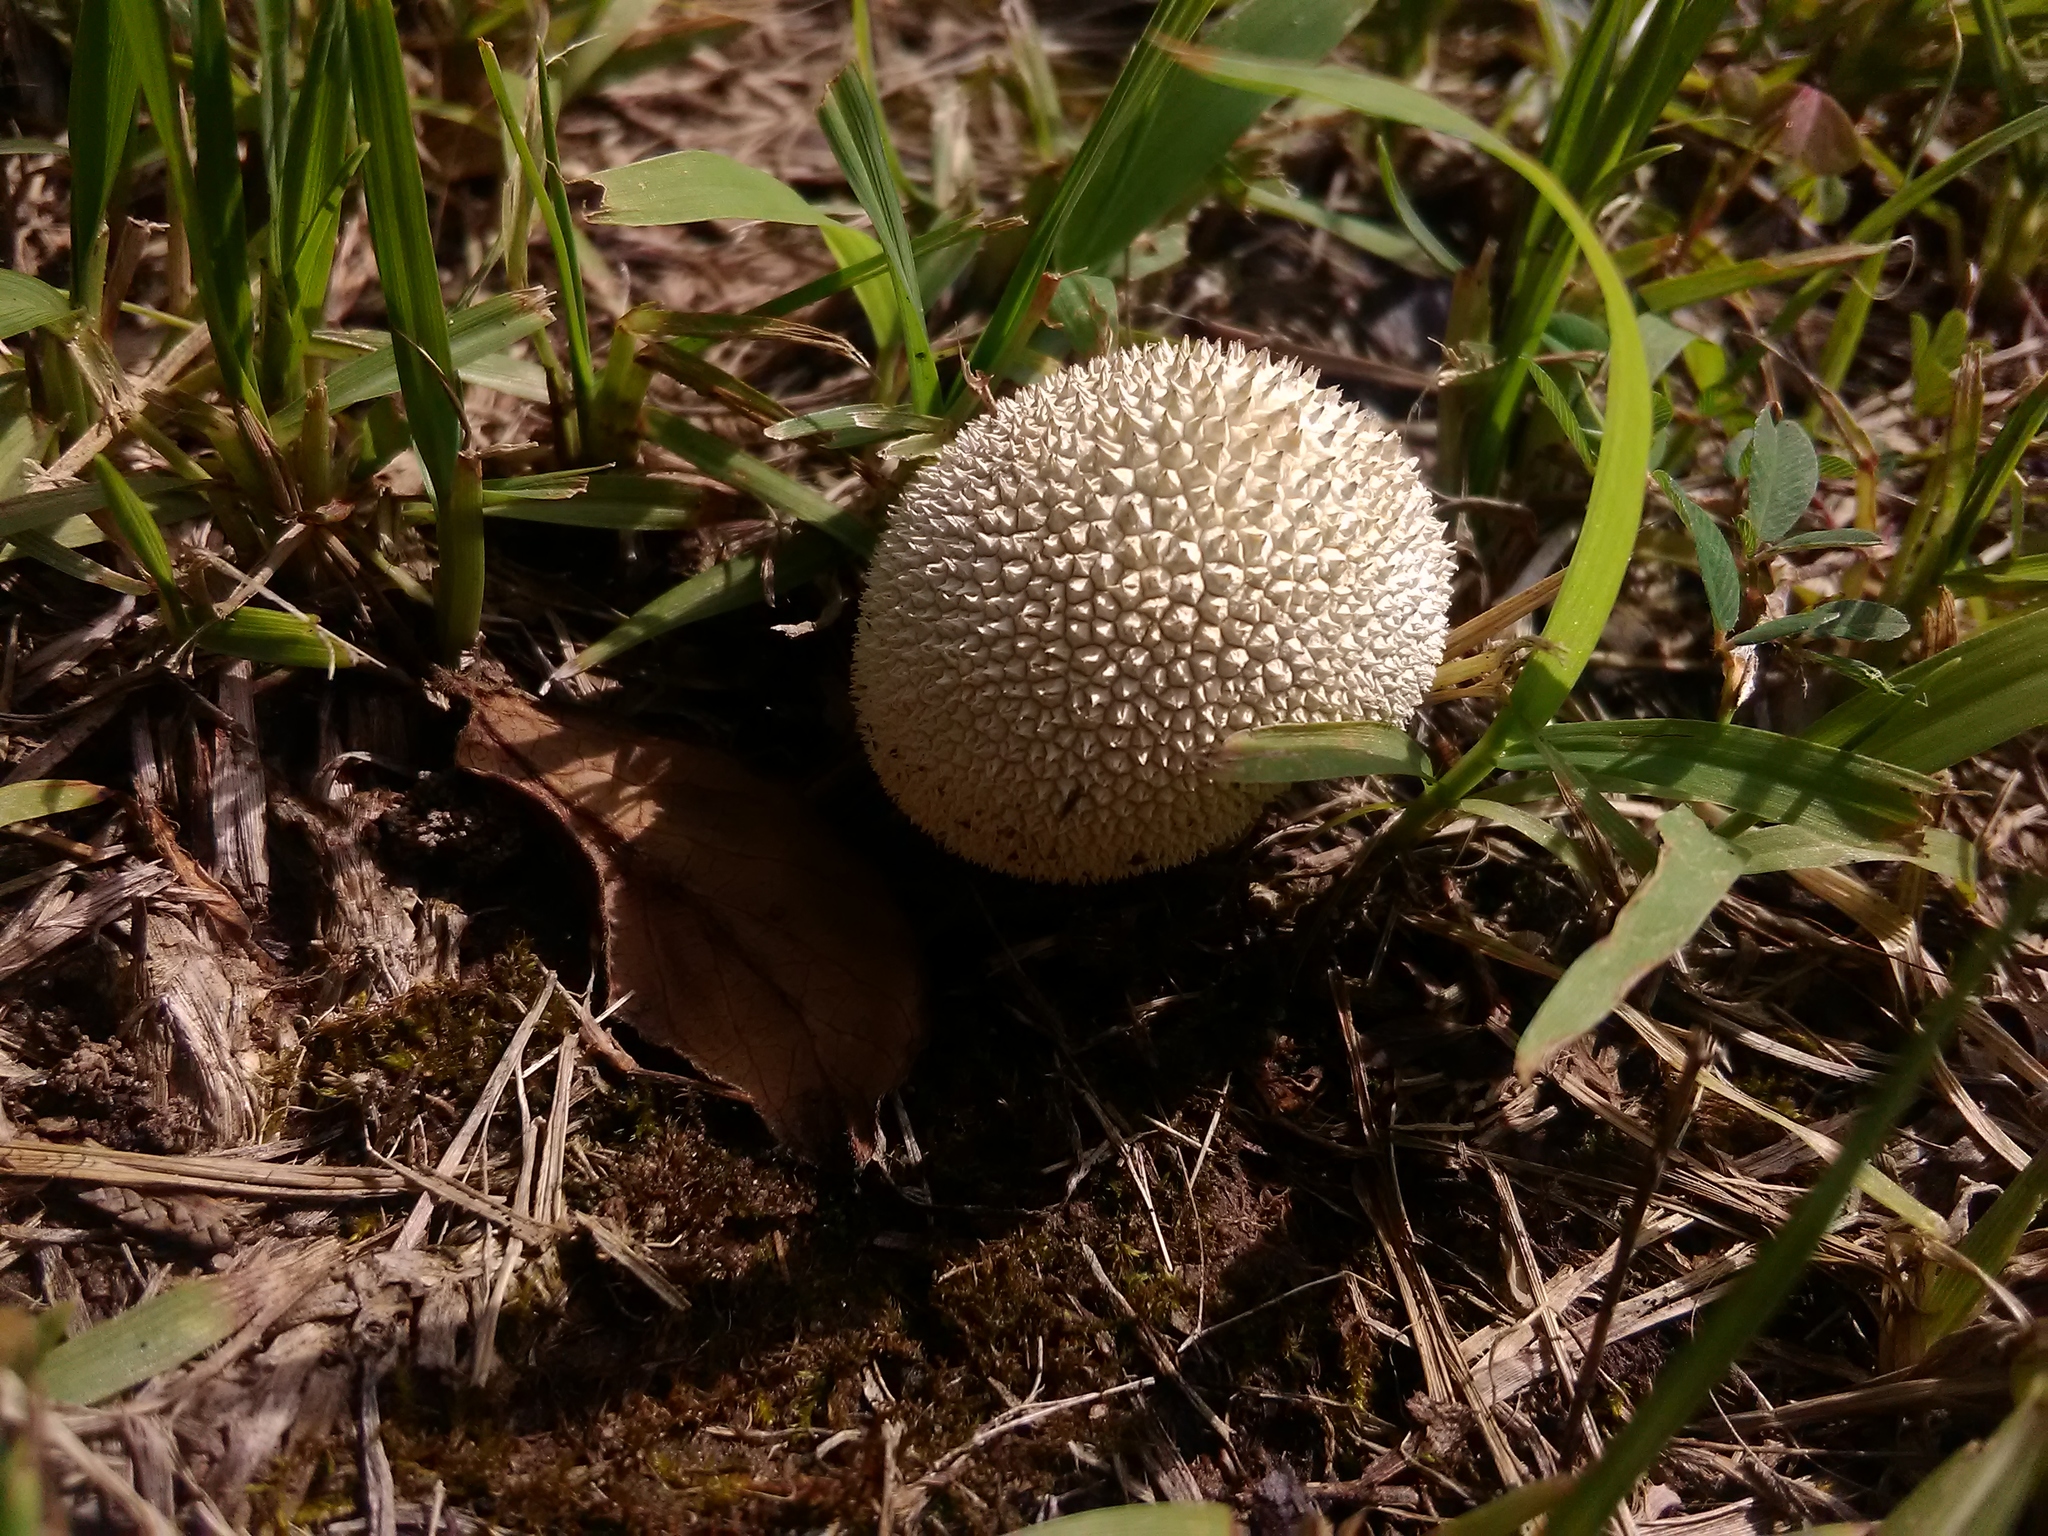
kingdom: Fungi
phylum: Basidiomycota
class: Agaricomycetes
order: Agaricales
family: Lycoperdaceae
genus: Lycoperdon
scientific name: Lycoperdon perlatum
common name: Common puffball
